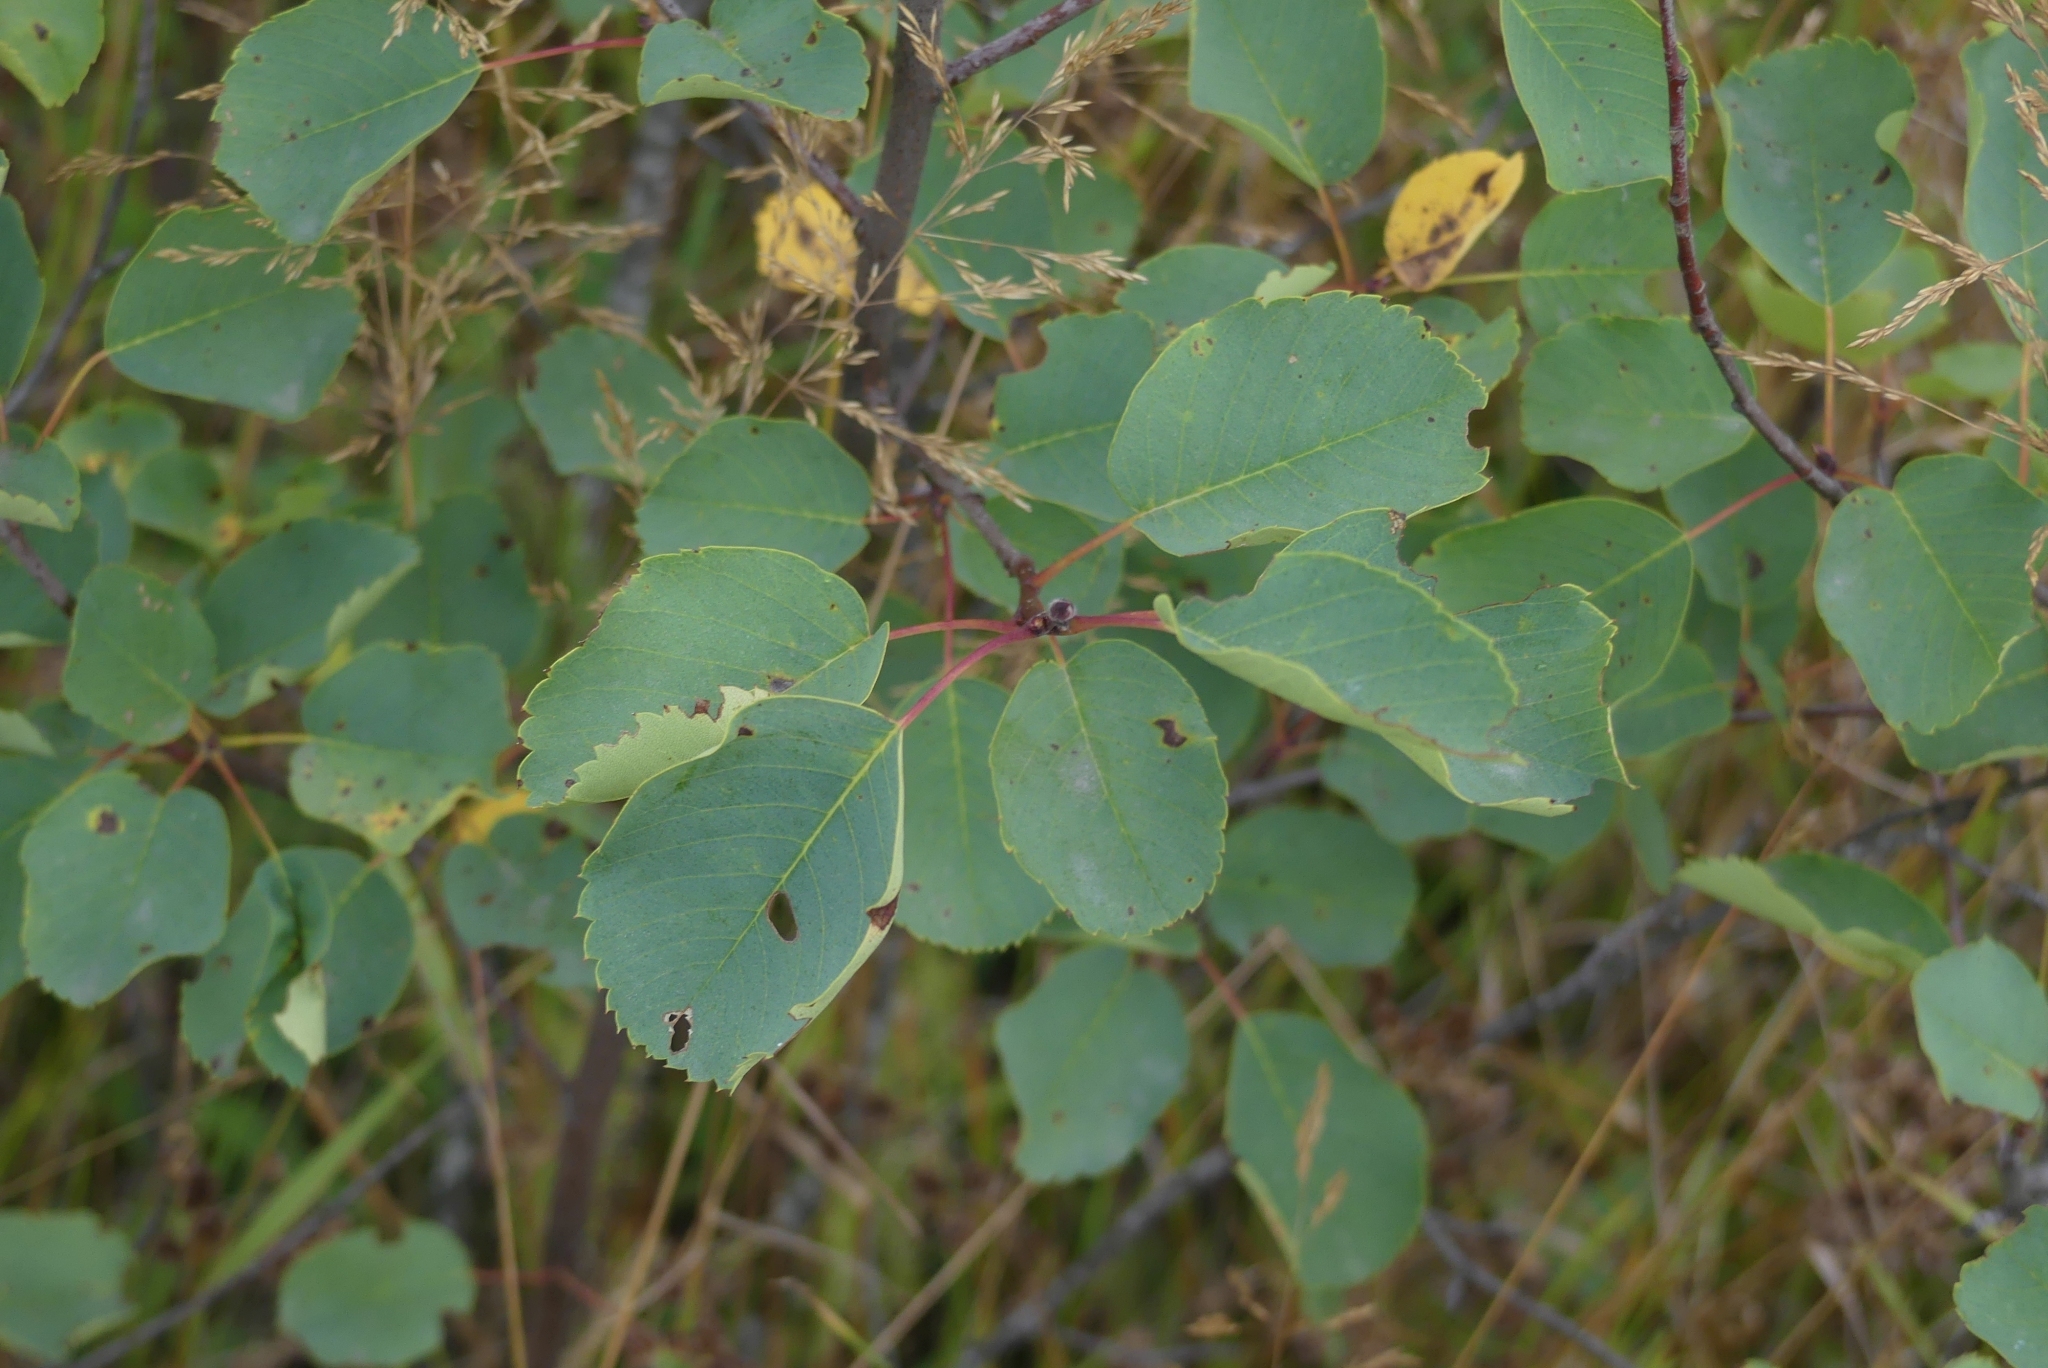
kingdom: Plantae
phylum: Tracheophyta
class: Magnoliopsida
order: Rosales
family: Rosaceae
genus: Amelanchier
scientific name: Amelanchier alnifolia
